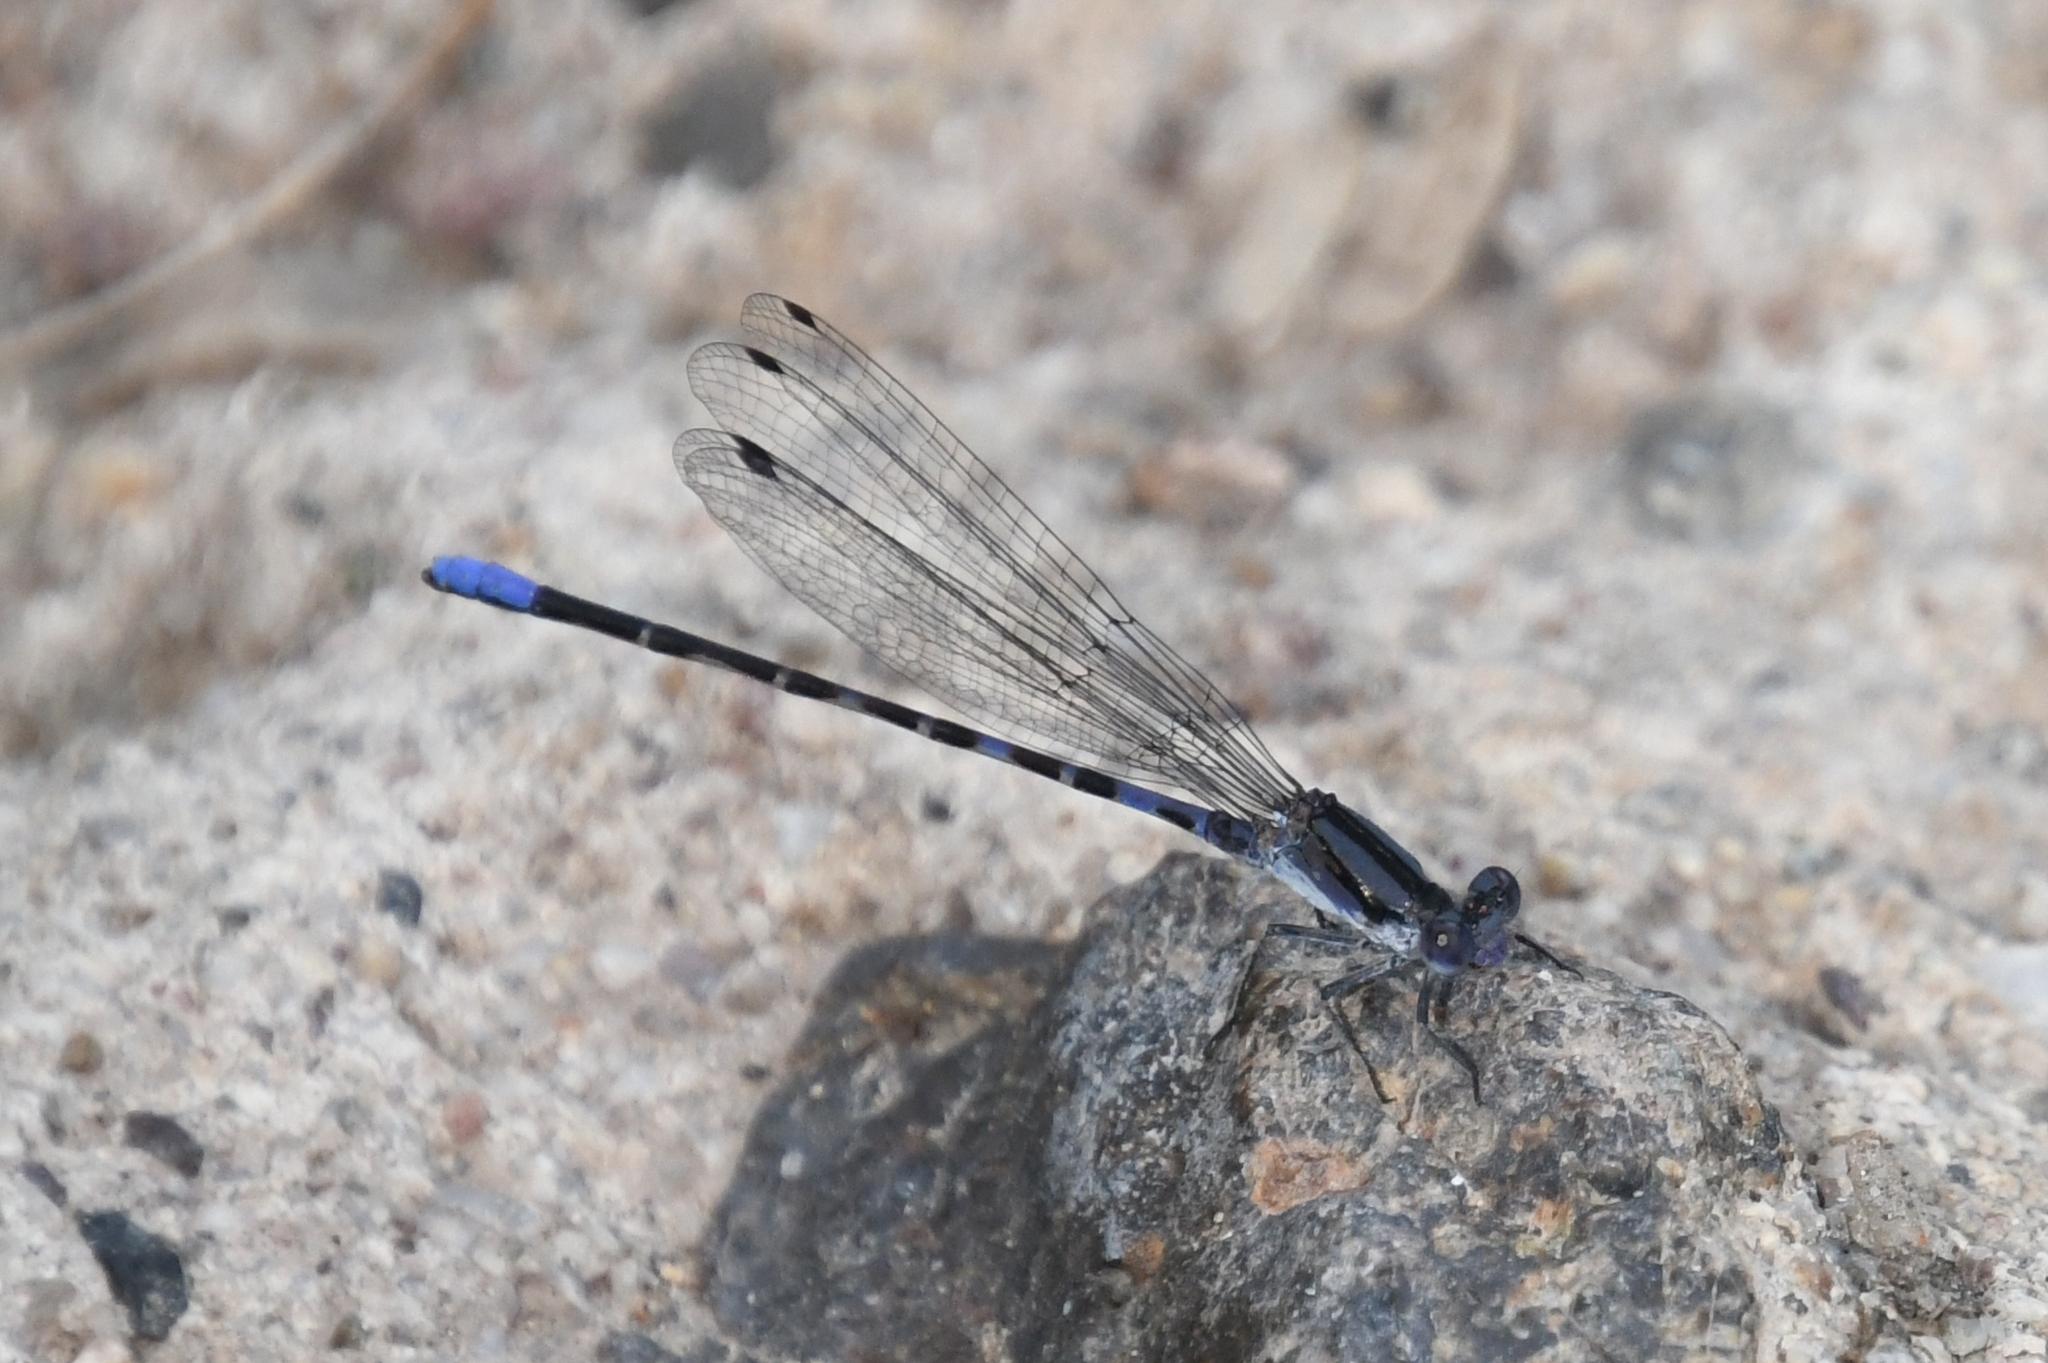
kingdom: Animalia
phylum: Arthropoda
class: Insecta
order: Odonata
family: Coenagrionidae
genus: Argia
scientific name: Argia immunda
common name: Kiowa dancer
